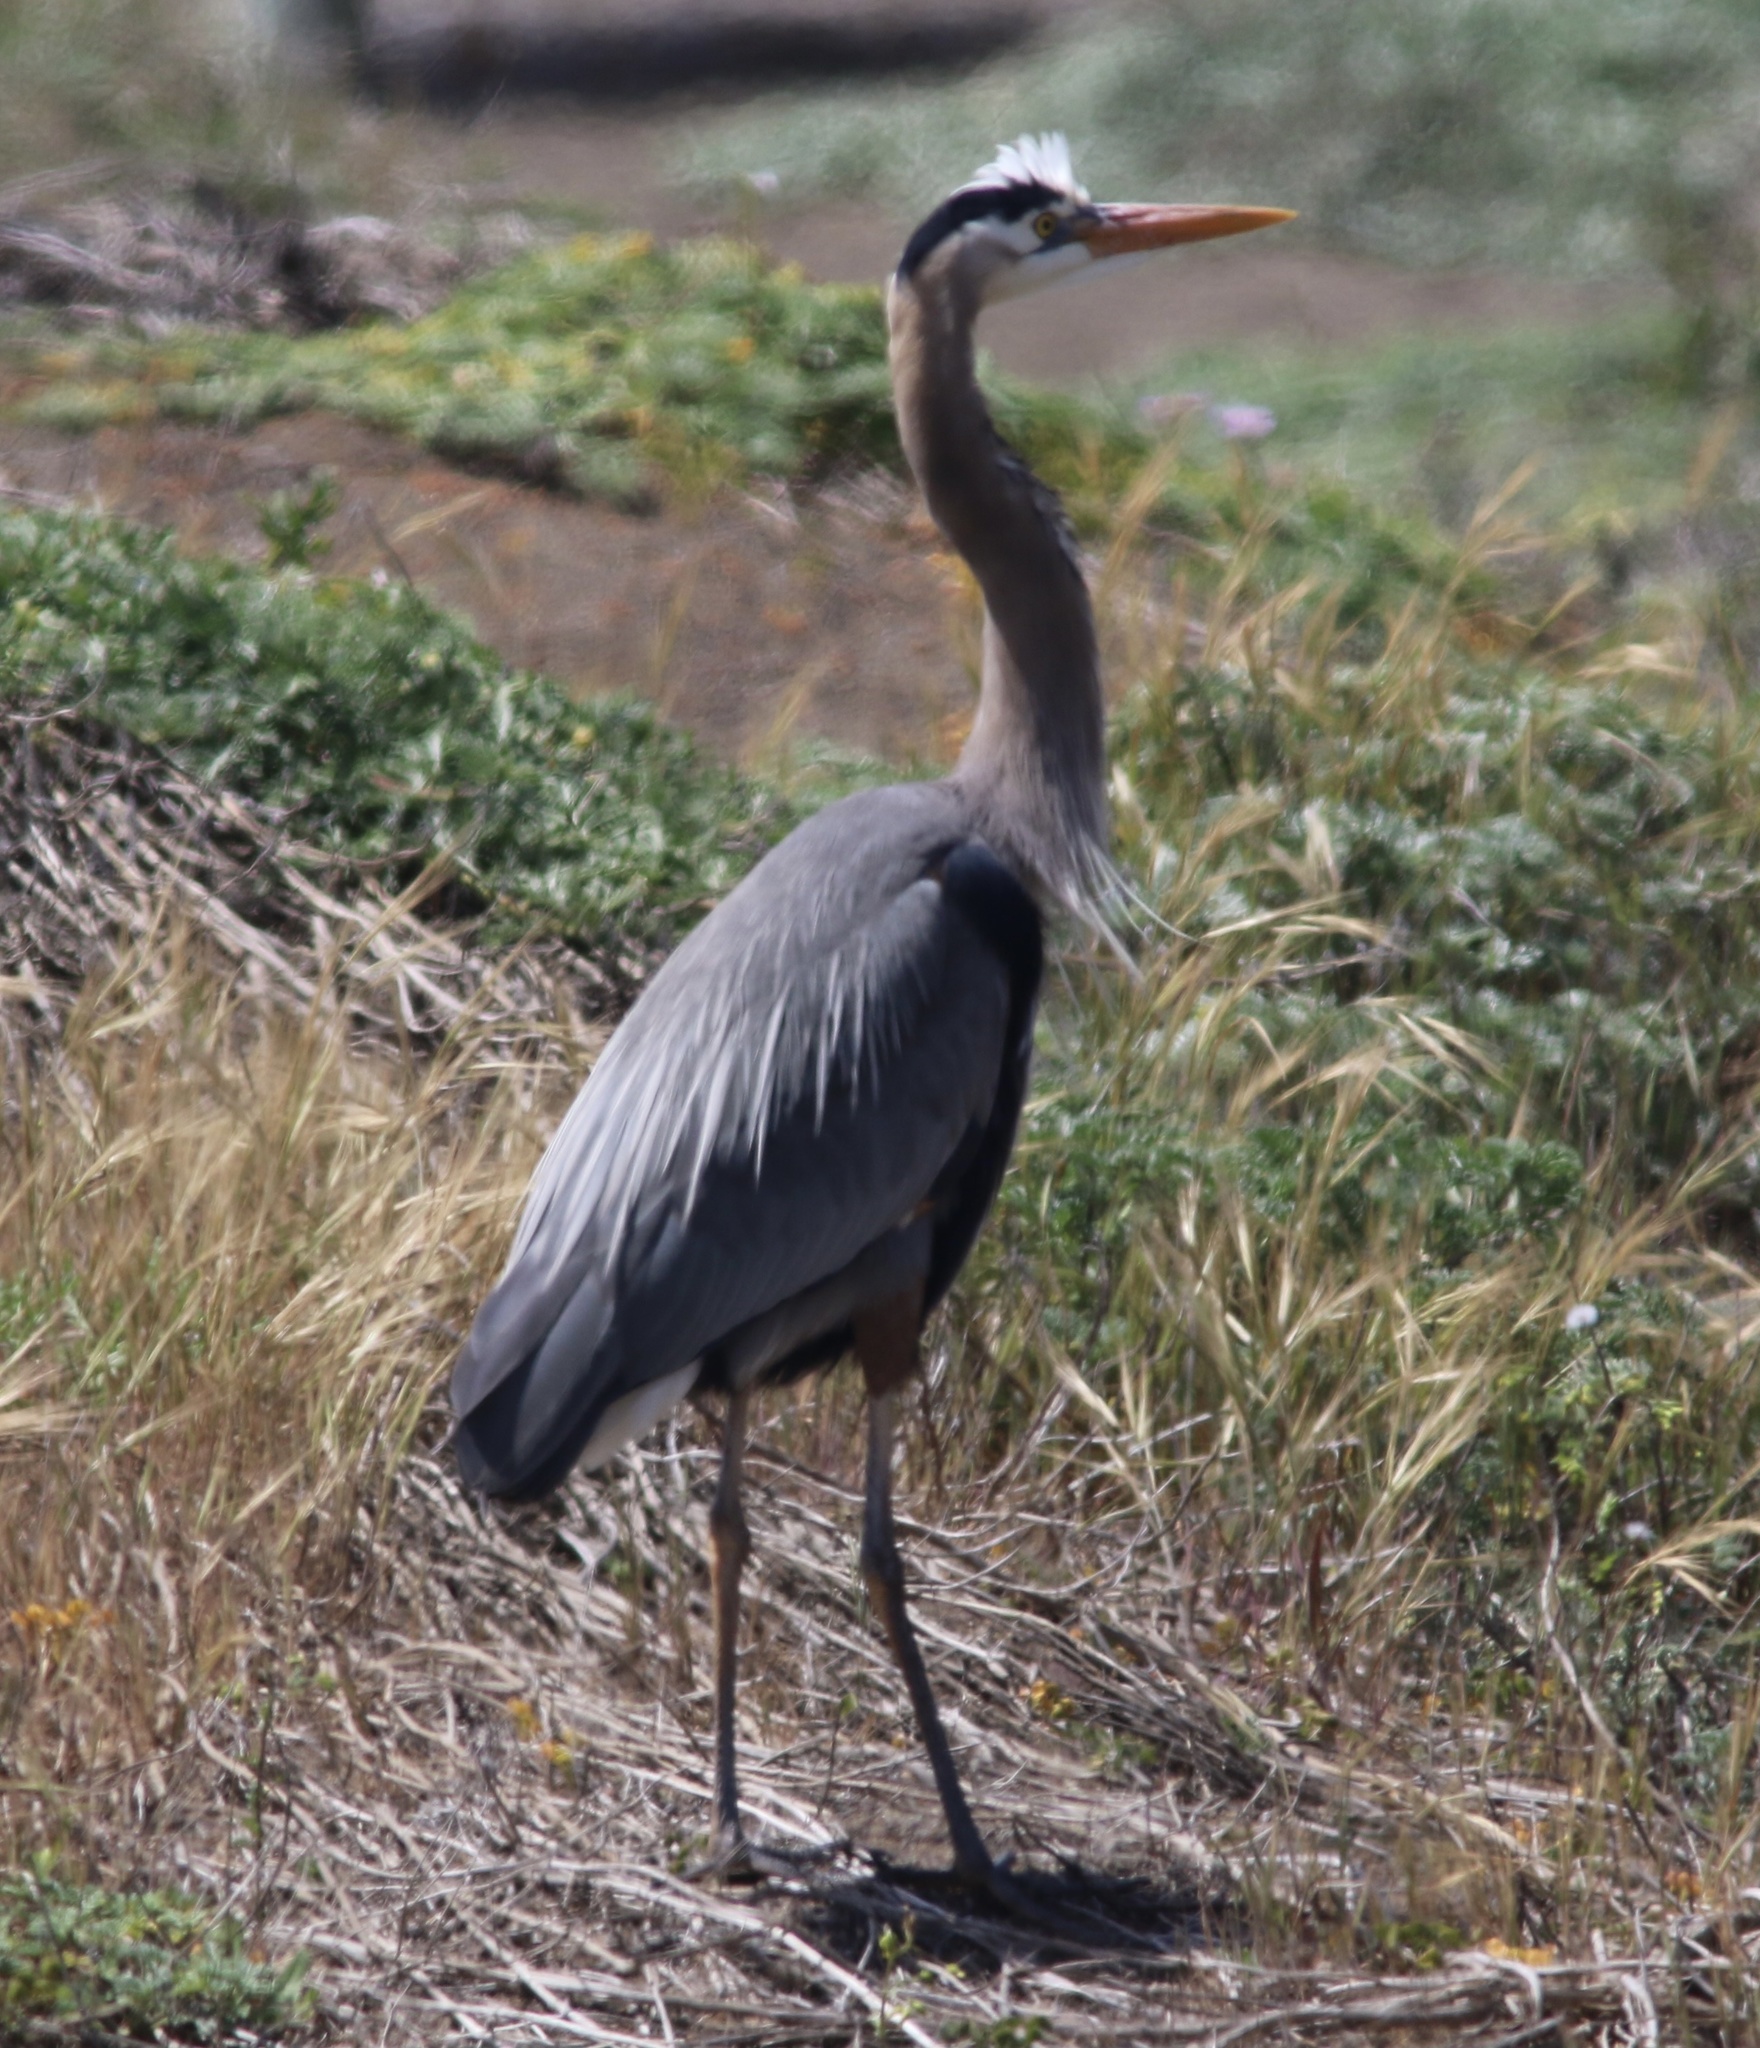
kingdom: Animalia
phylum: Chordata
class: Aves
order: Pelecaniformes
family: Ardeidae
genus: Ardea
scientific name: Ardea herodias
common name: Great blue heron
